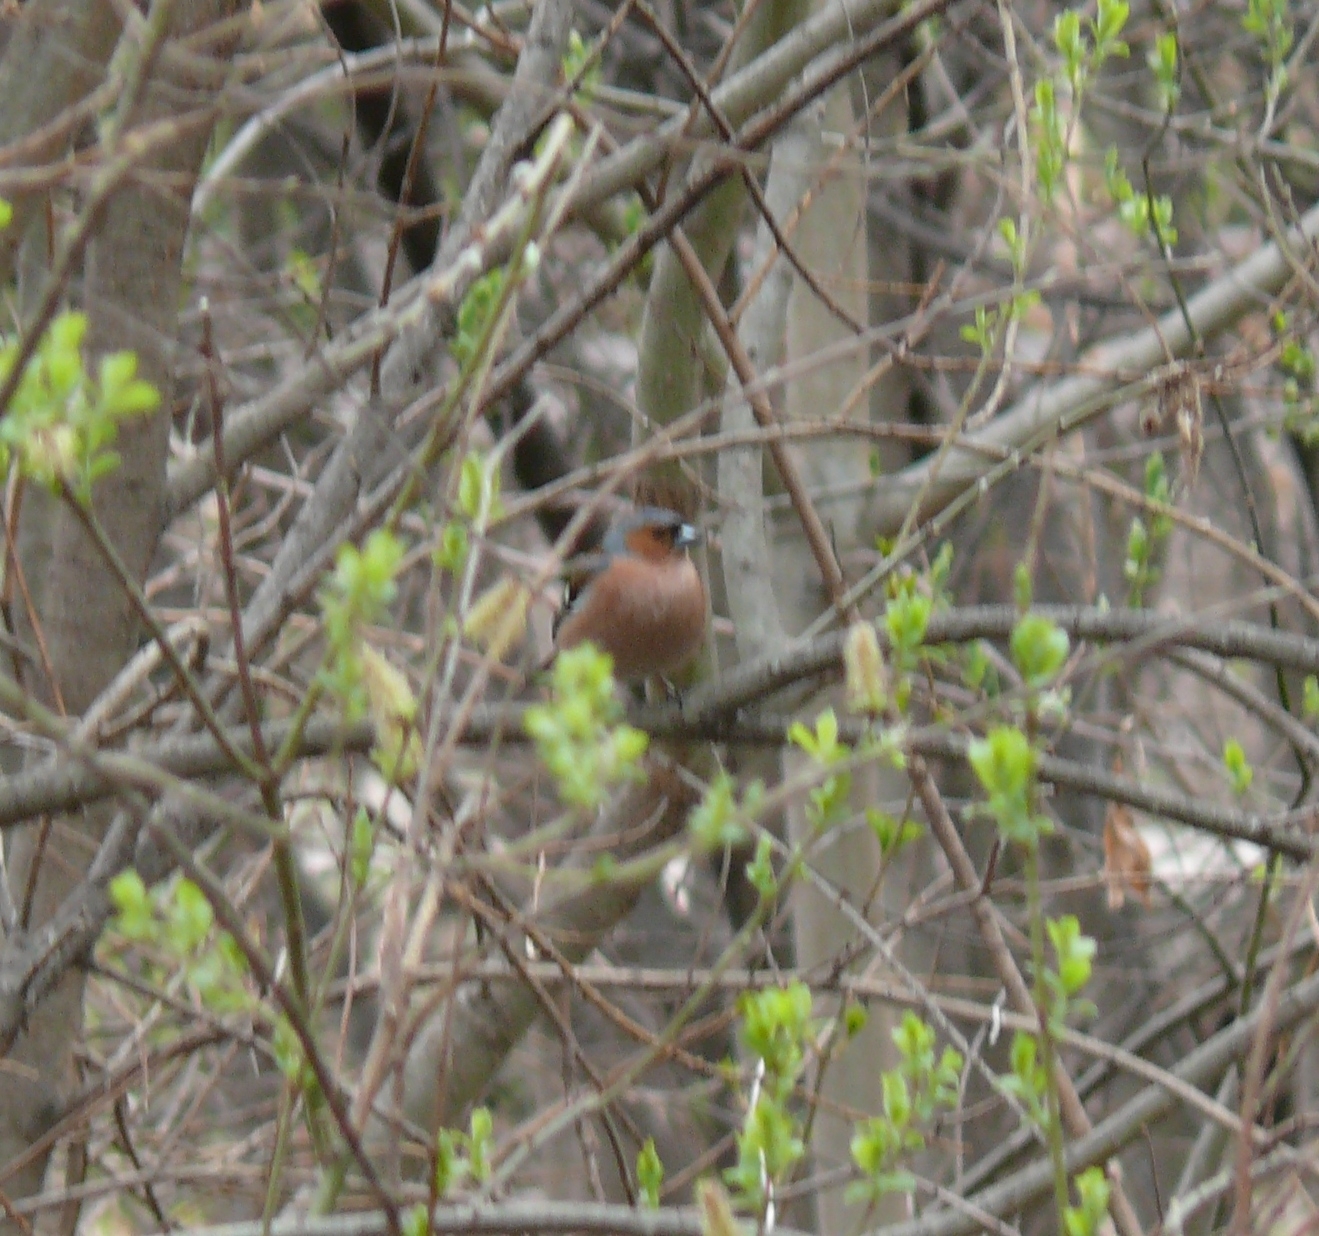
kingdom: Animalia
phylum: Chordata
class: Aves
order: Passeriformes
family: Fringillidae
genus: Fringilla
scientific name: Fringilla coelebs
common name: Common chaffinch
